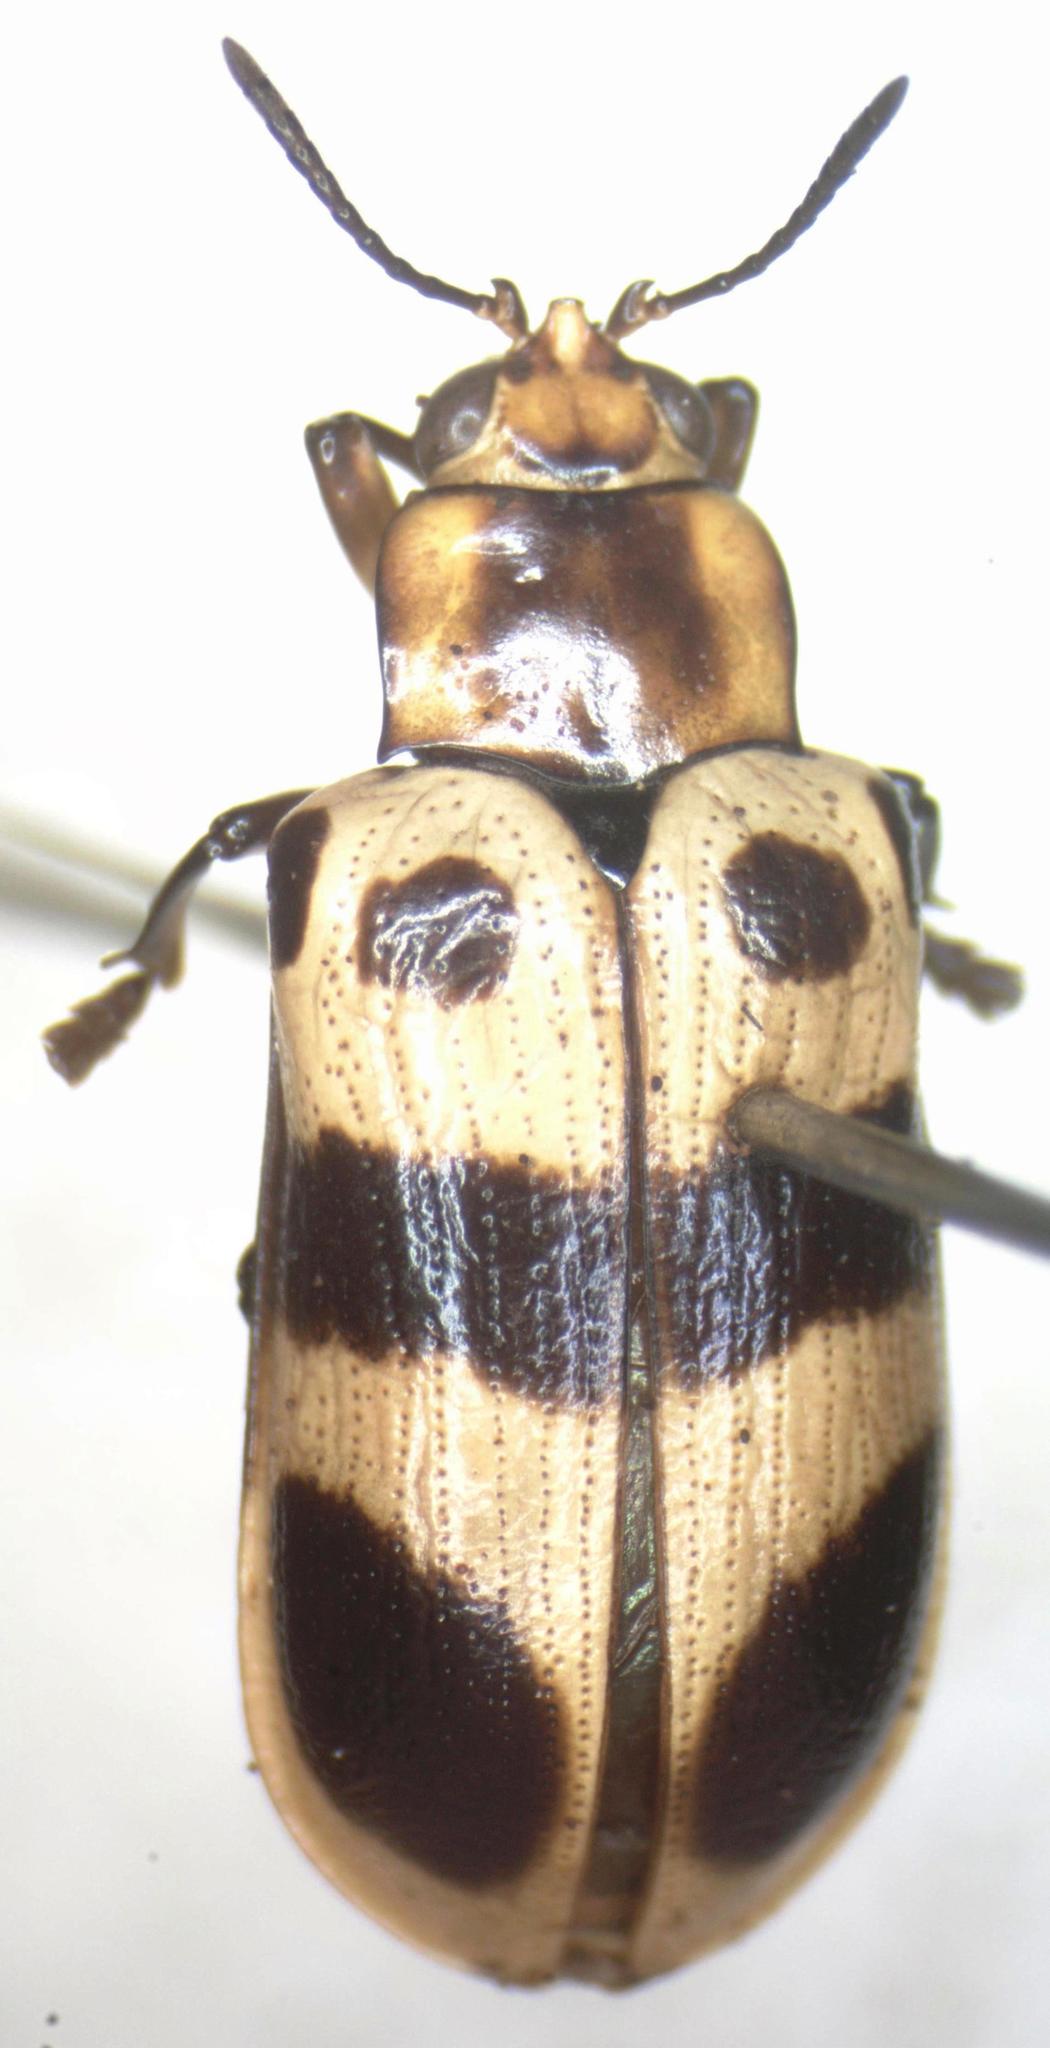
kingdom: Animalia
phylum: Arthropoda
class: Insecta
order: Coleoptera
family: Chrysomelidae
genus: Chelobasis
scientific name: Chelobasis bicolor
